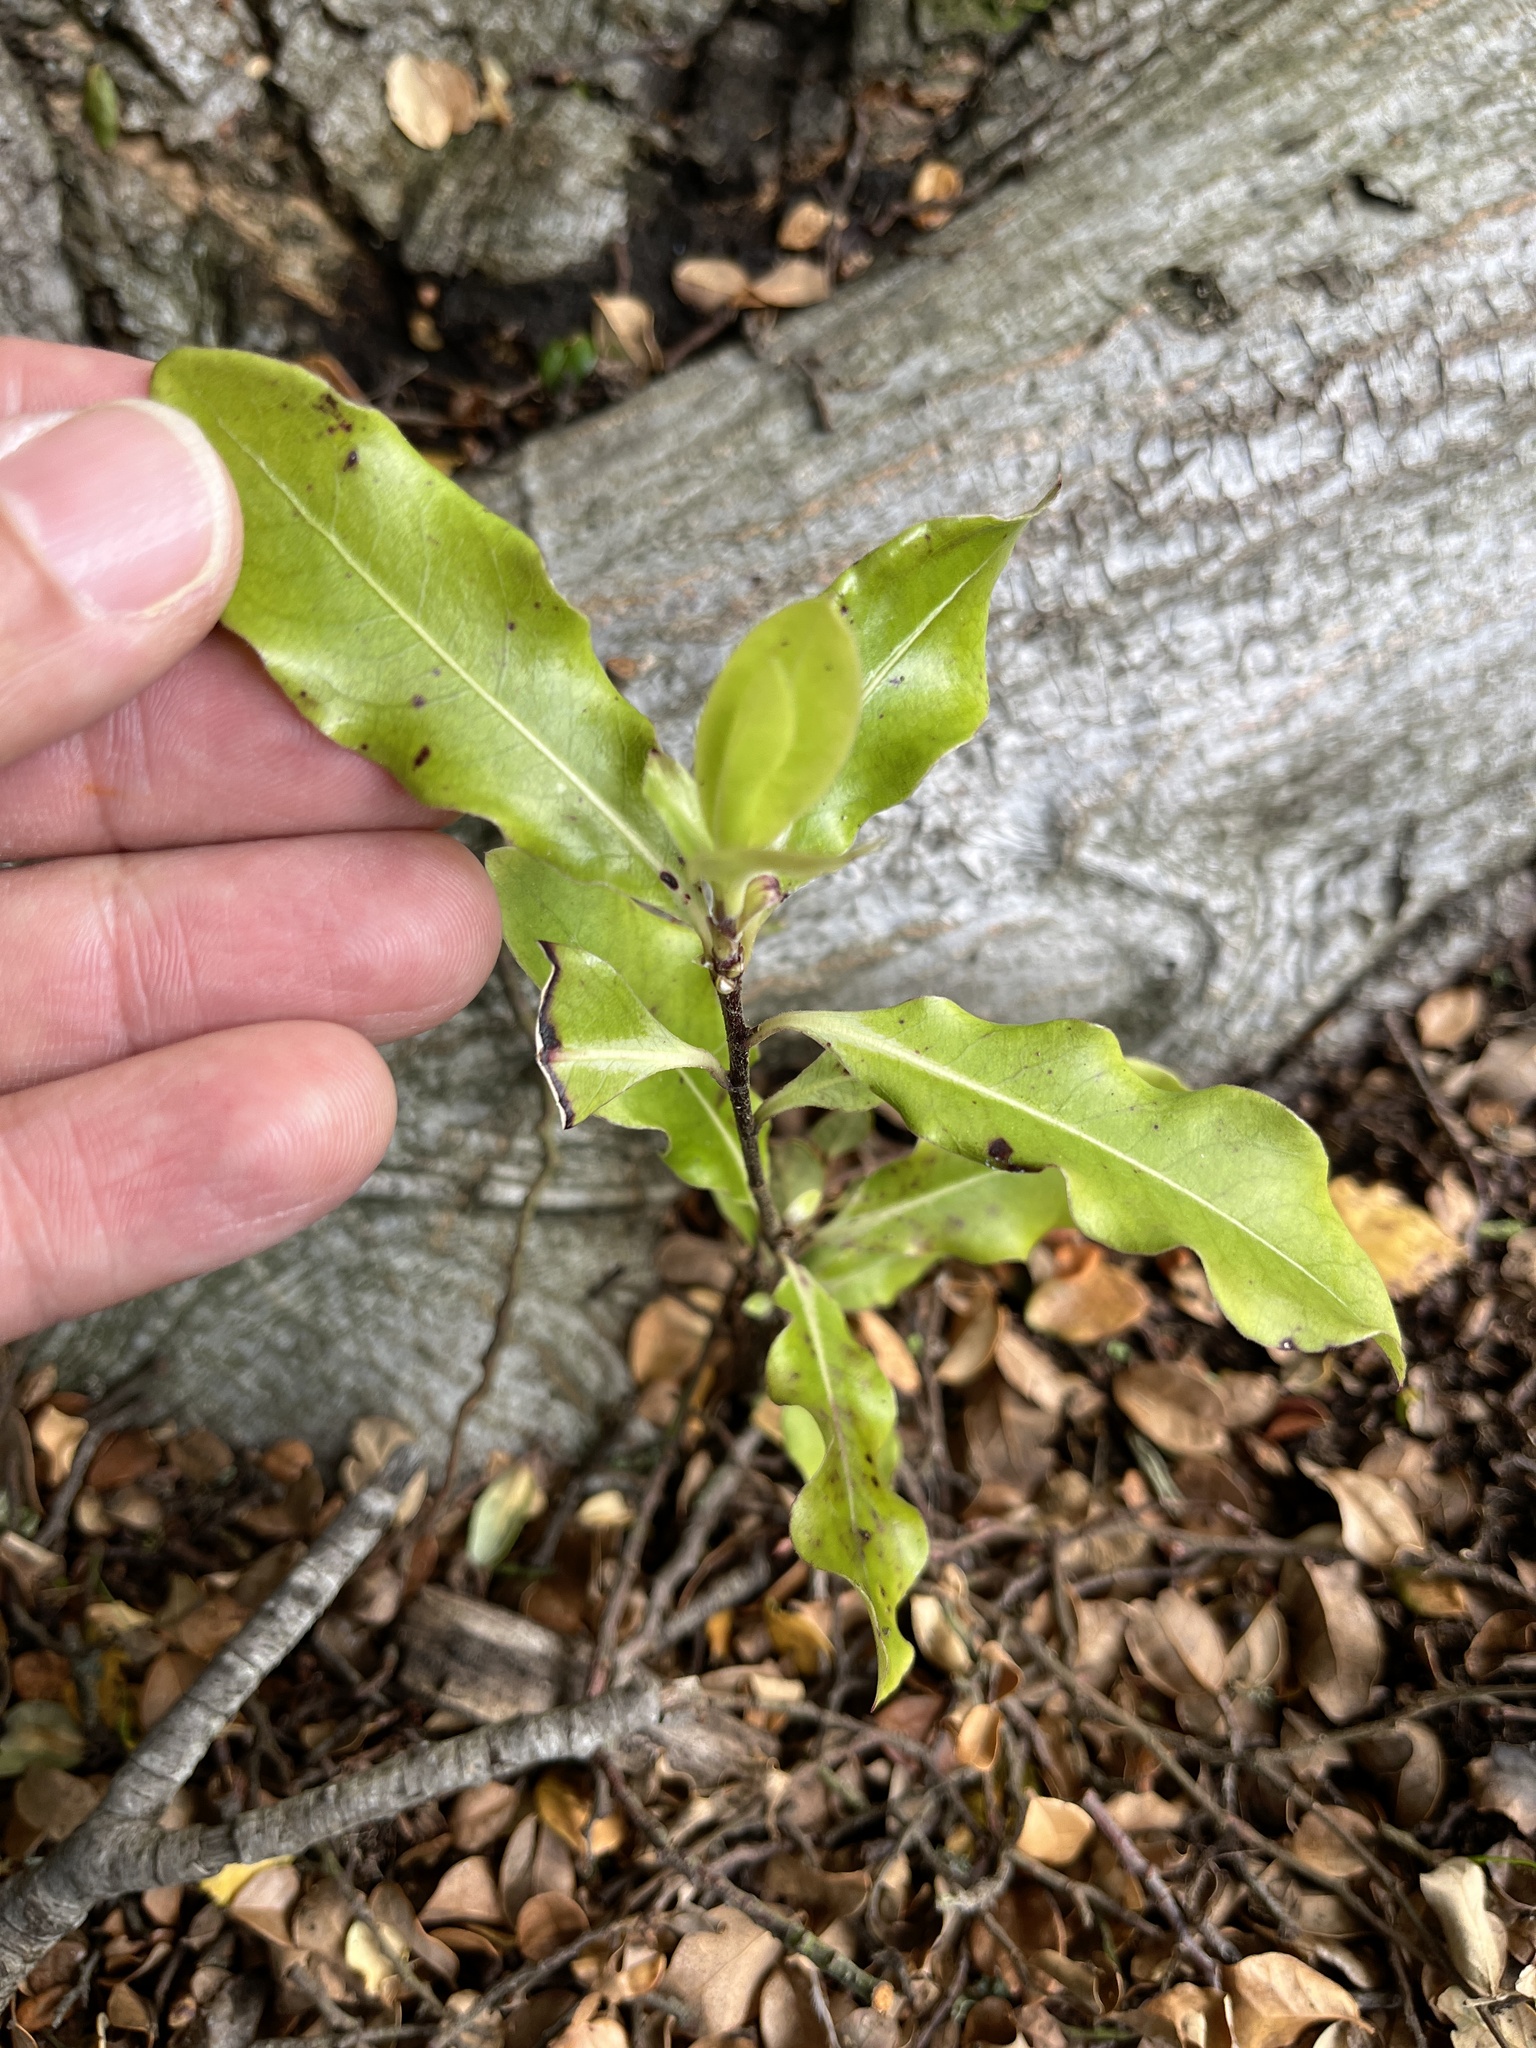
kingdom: Plantae
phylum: Tracheophyta
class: Magnoliopsida
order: Apiales
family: Pittosporaceae
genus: Pittosporum
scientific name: Pittosporum eugenioides
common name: Lemonwood
